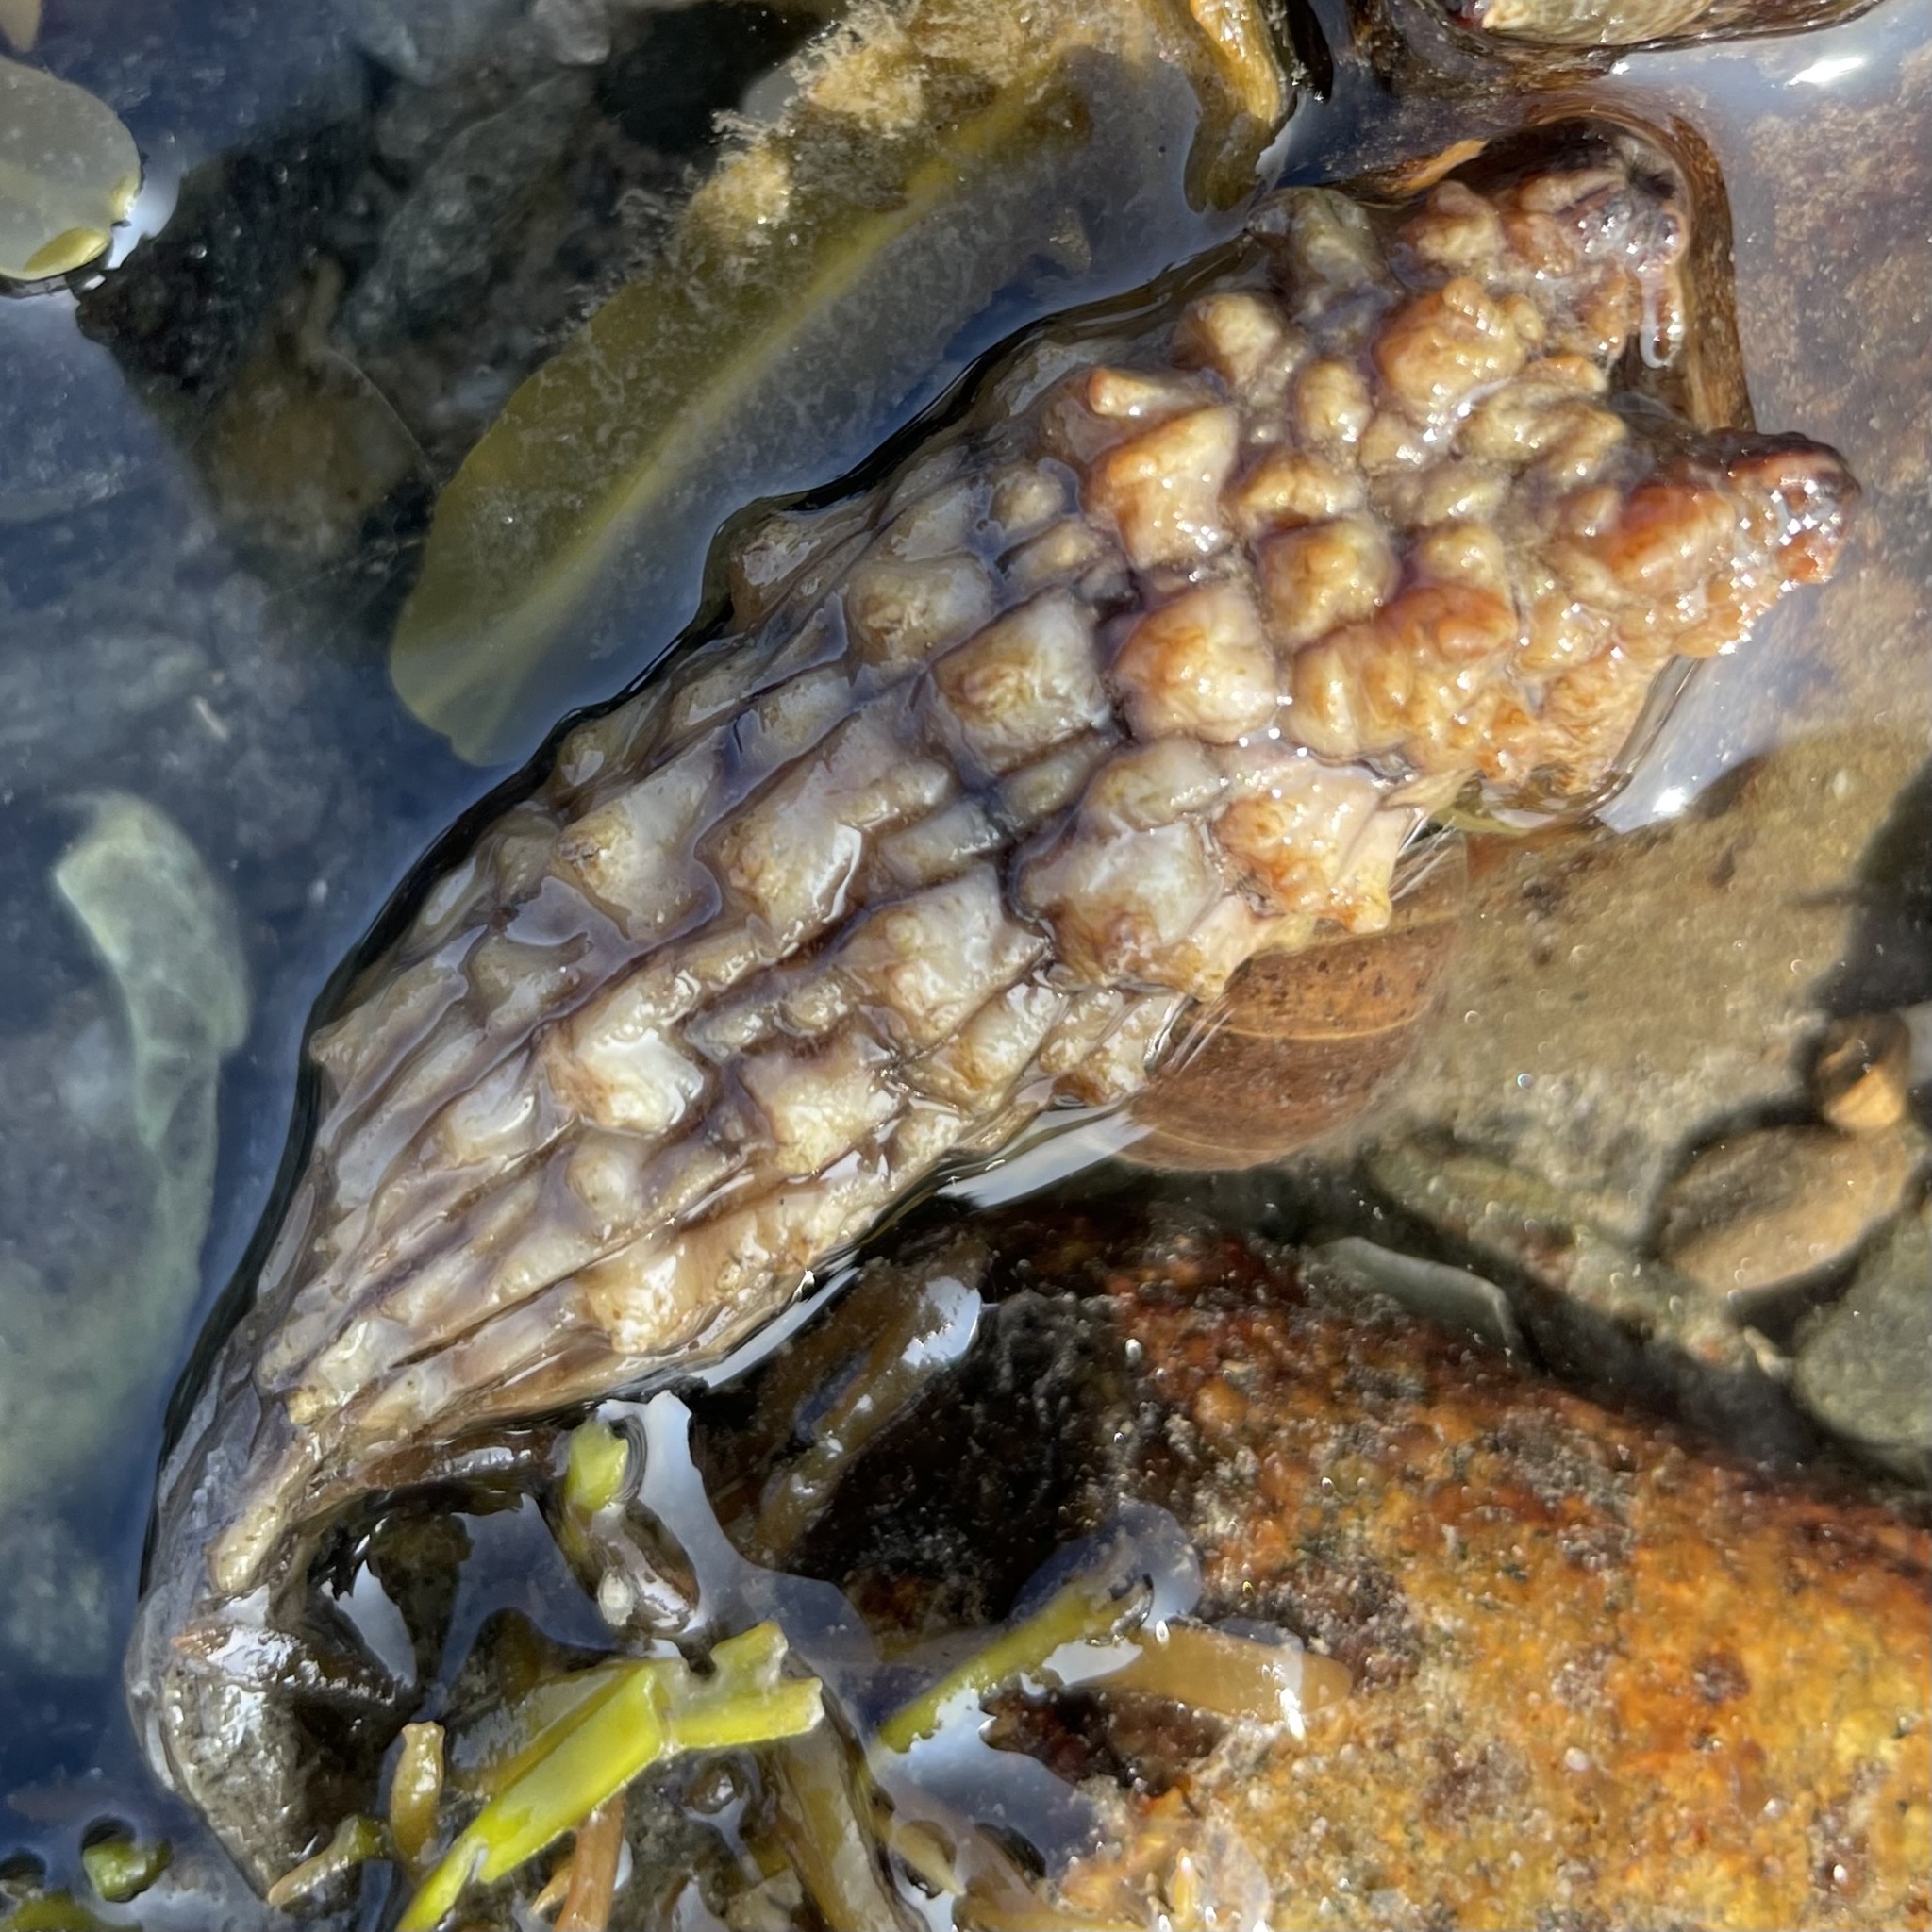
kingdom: Animalia
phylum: Chordata
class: Ascidiacea
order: Stolidobranchia
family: Styelidae
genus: Styela
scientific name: Styela clava
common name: Leathery sea squirt
